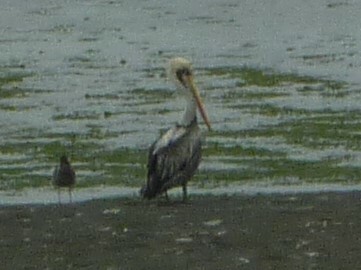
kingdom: Animalia
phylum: Chordata
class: Aves
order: Pelecaniformes
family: Pelecanidae
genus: Pelecanus
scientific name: Pelecanus thagus
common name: Peruvian pelican
